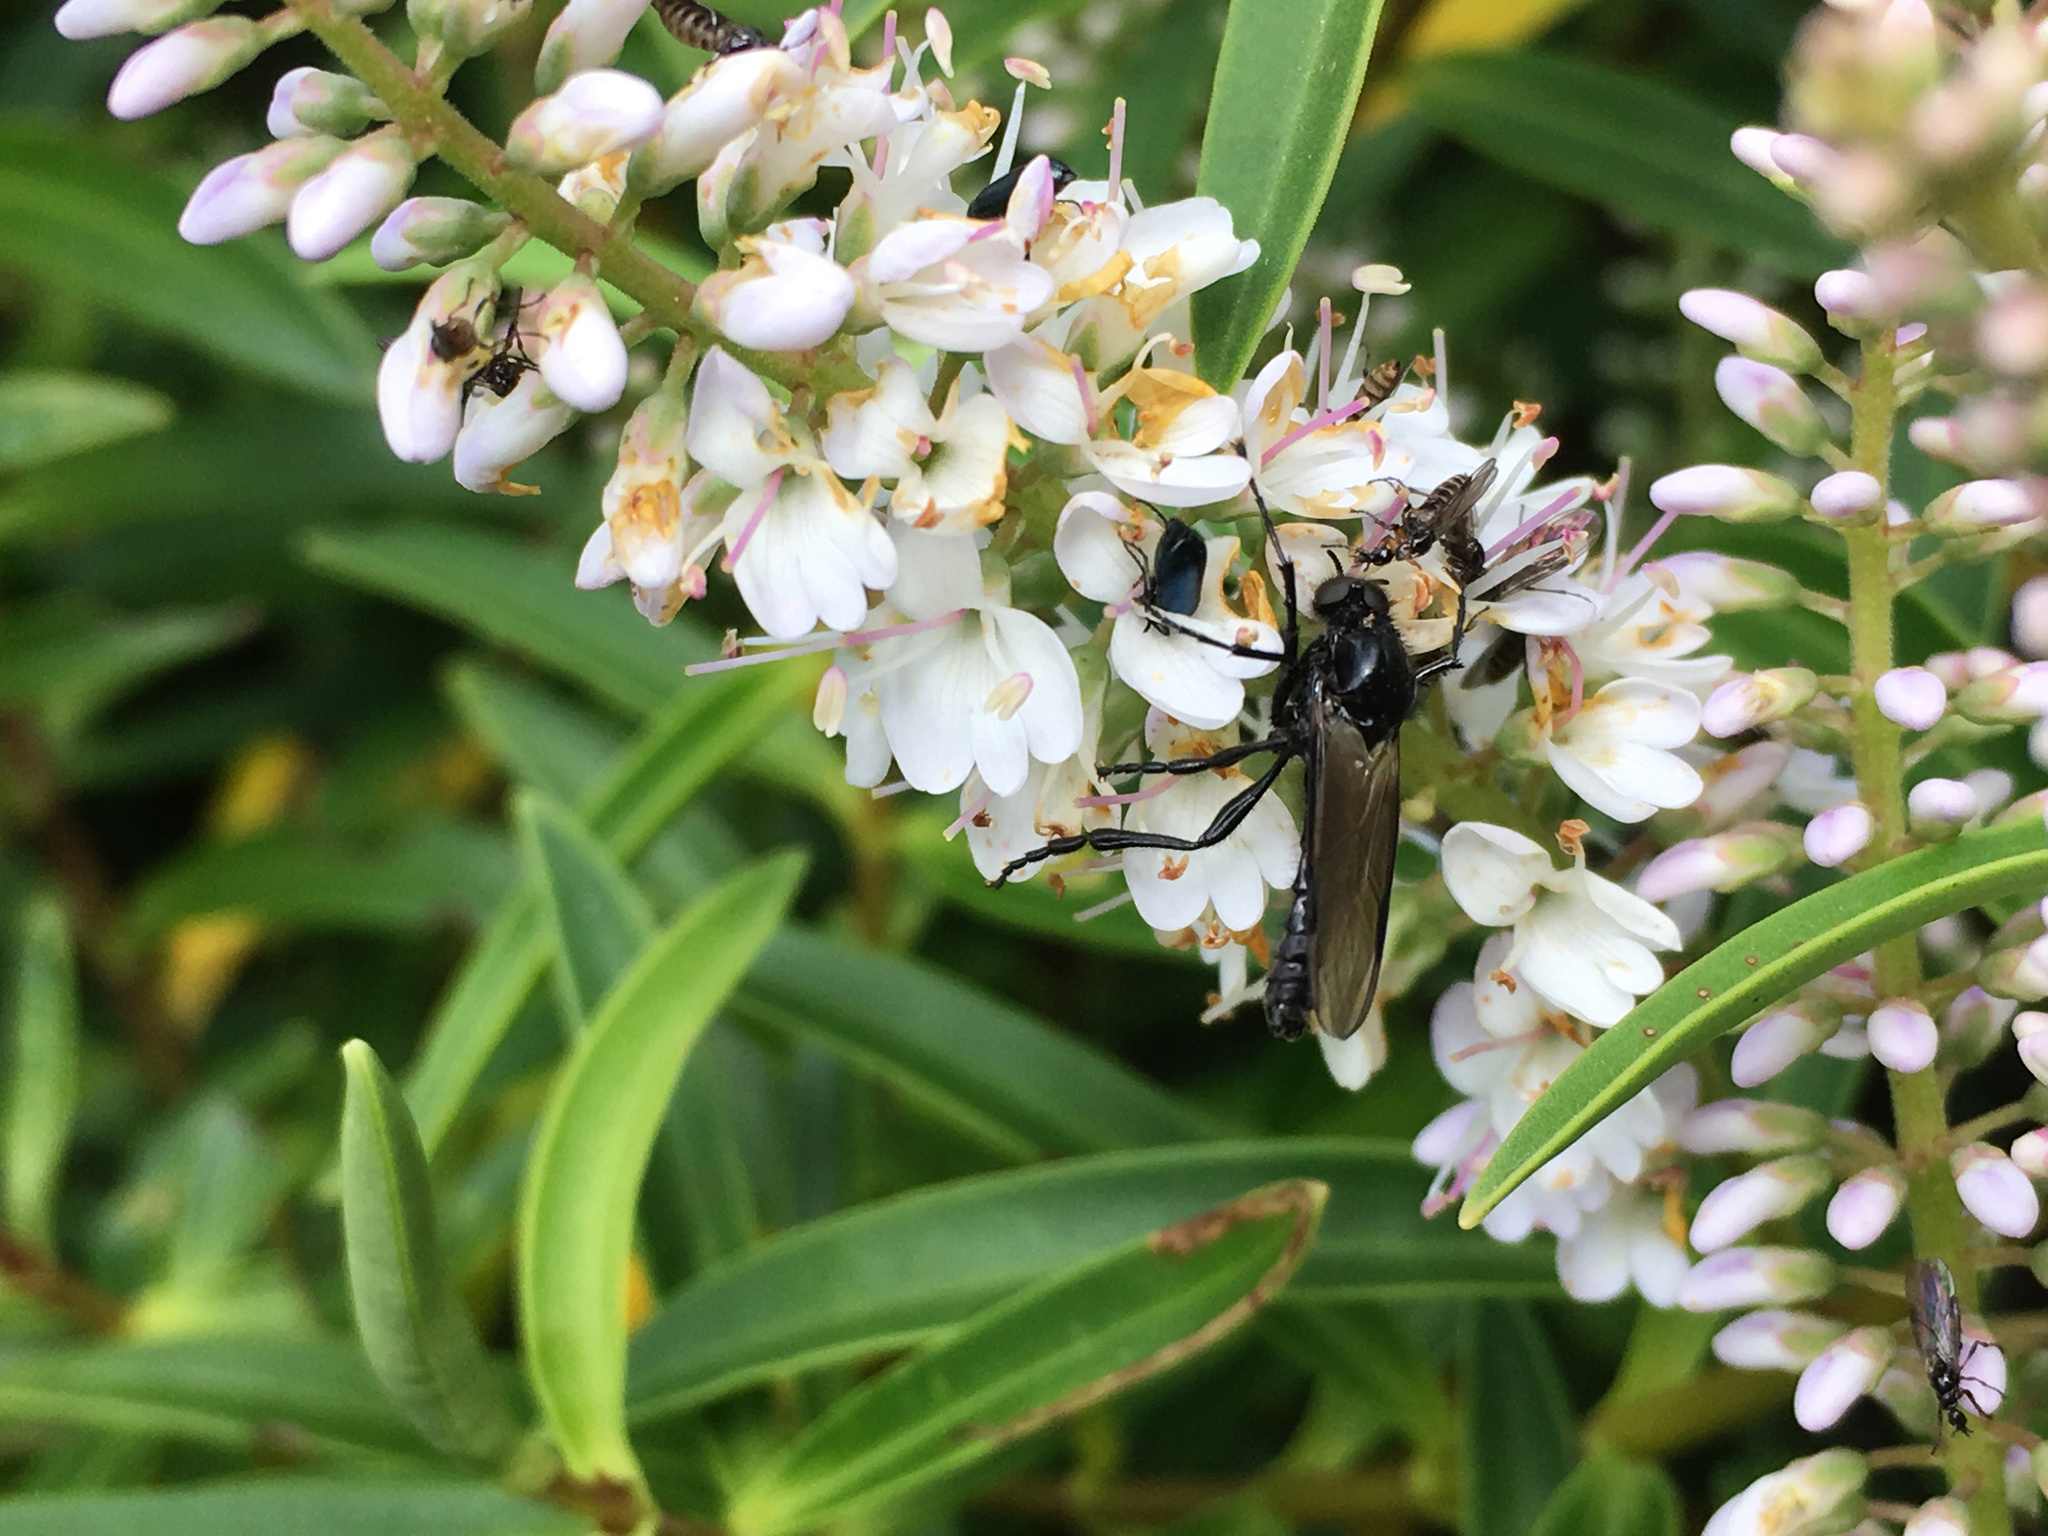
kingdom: Animalia
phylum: Arthropoda
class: Insecta
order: Diptera
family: Bibionidae
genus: Dilophus
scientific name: Dilophus nigrostigma
